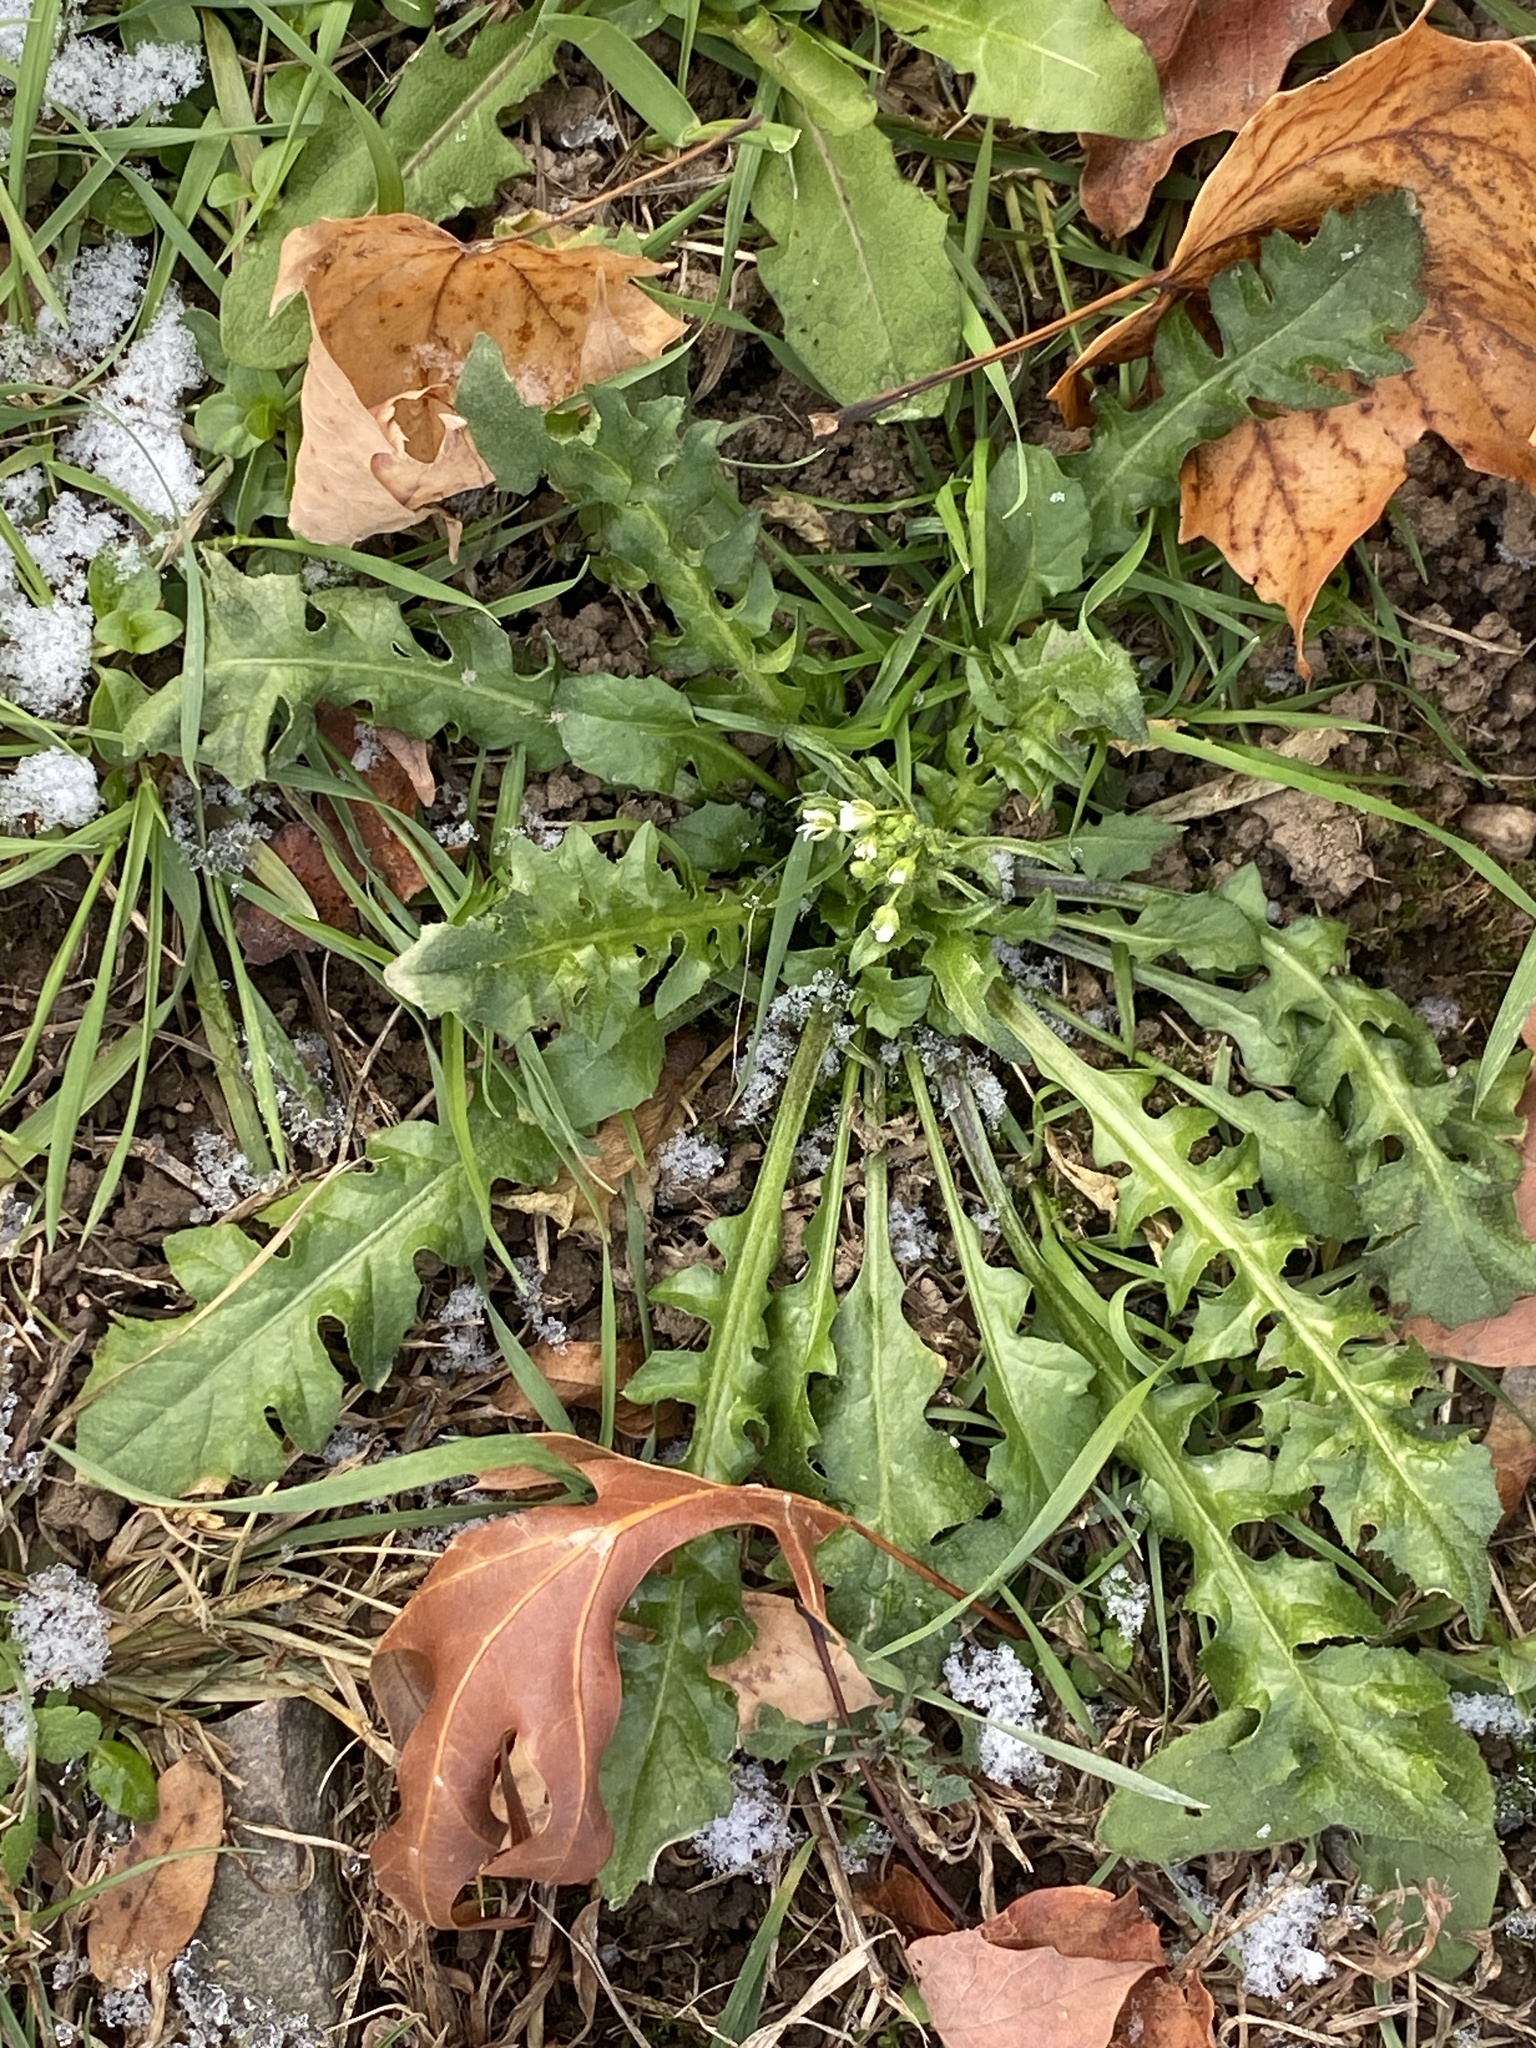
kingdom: Plantae
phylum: Tracheophyta
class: Magnoliopsida
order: Brassicales
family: Brassicaceae
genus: Capsella
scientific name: Capsella bursa-pastoris
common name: Shepherd's purse
